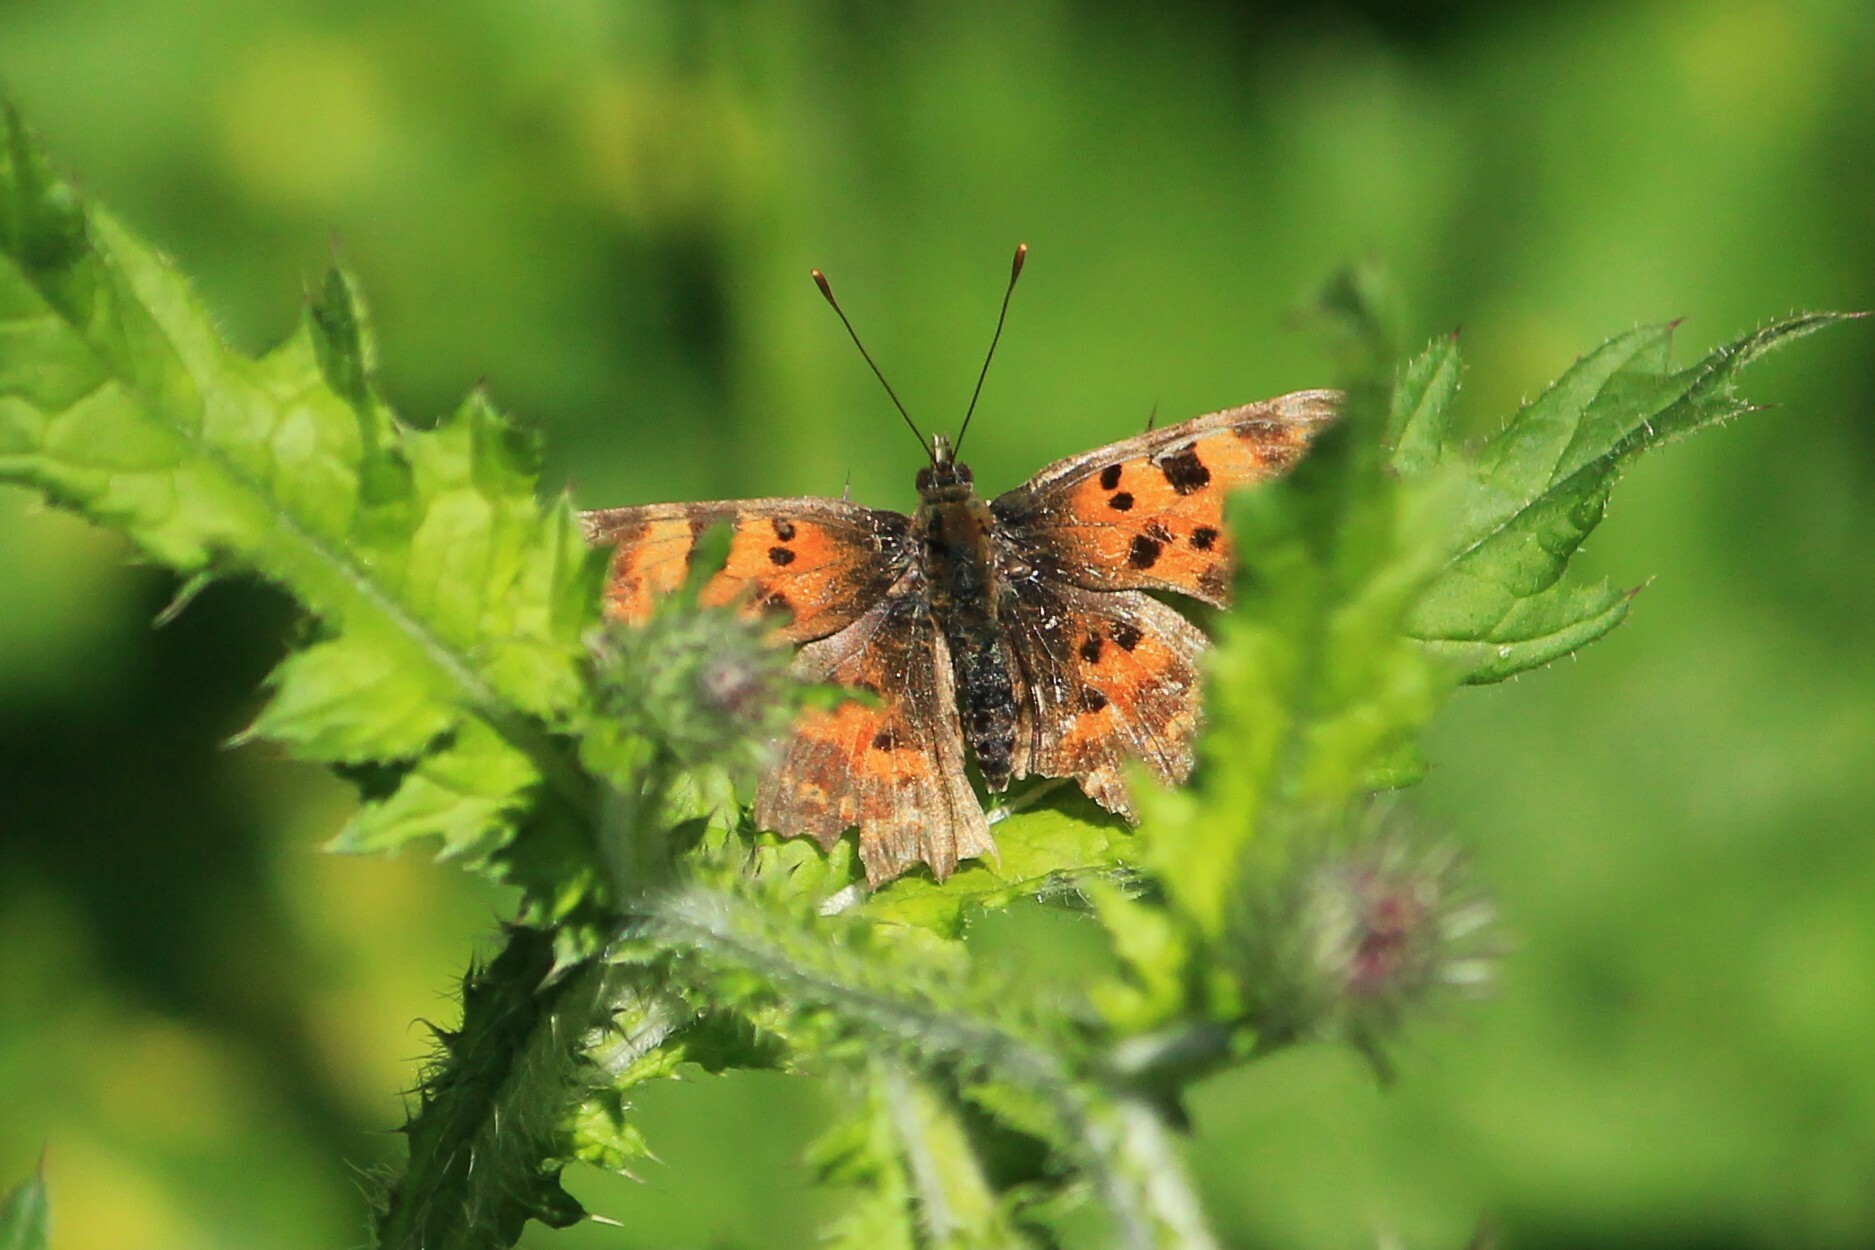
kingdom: Animalia
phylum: Arthropoda
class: Insecta
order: Lepidoptera
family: Nymphalidae
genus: Polygonia
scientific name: Polygonia c-album
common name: Comma
